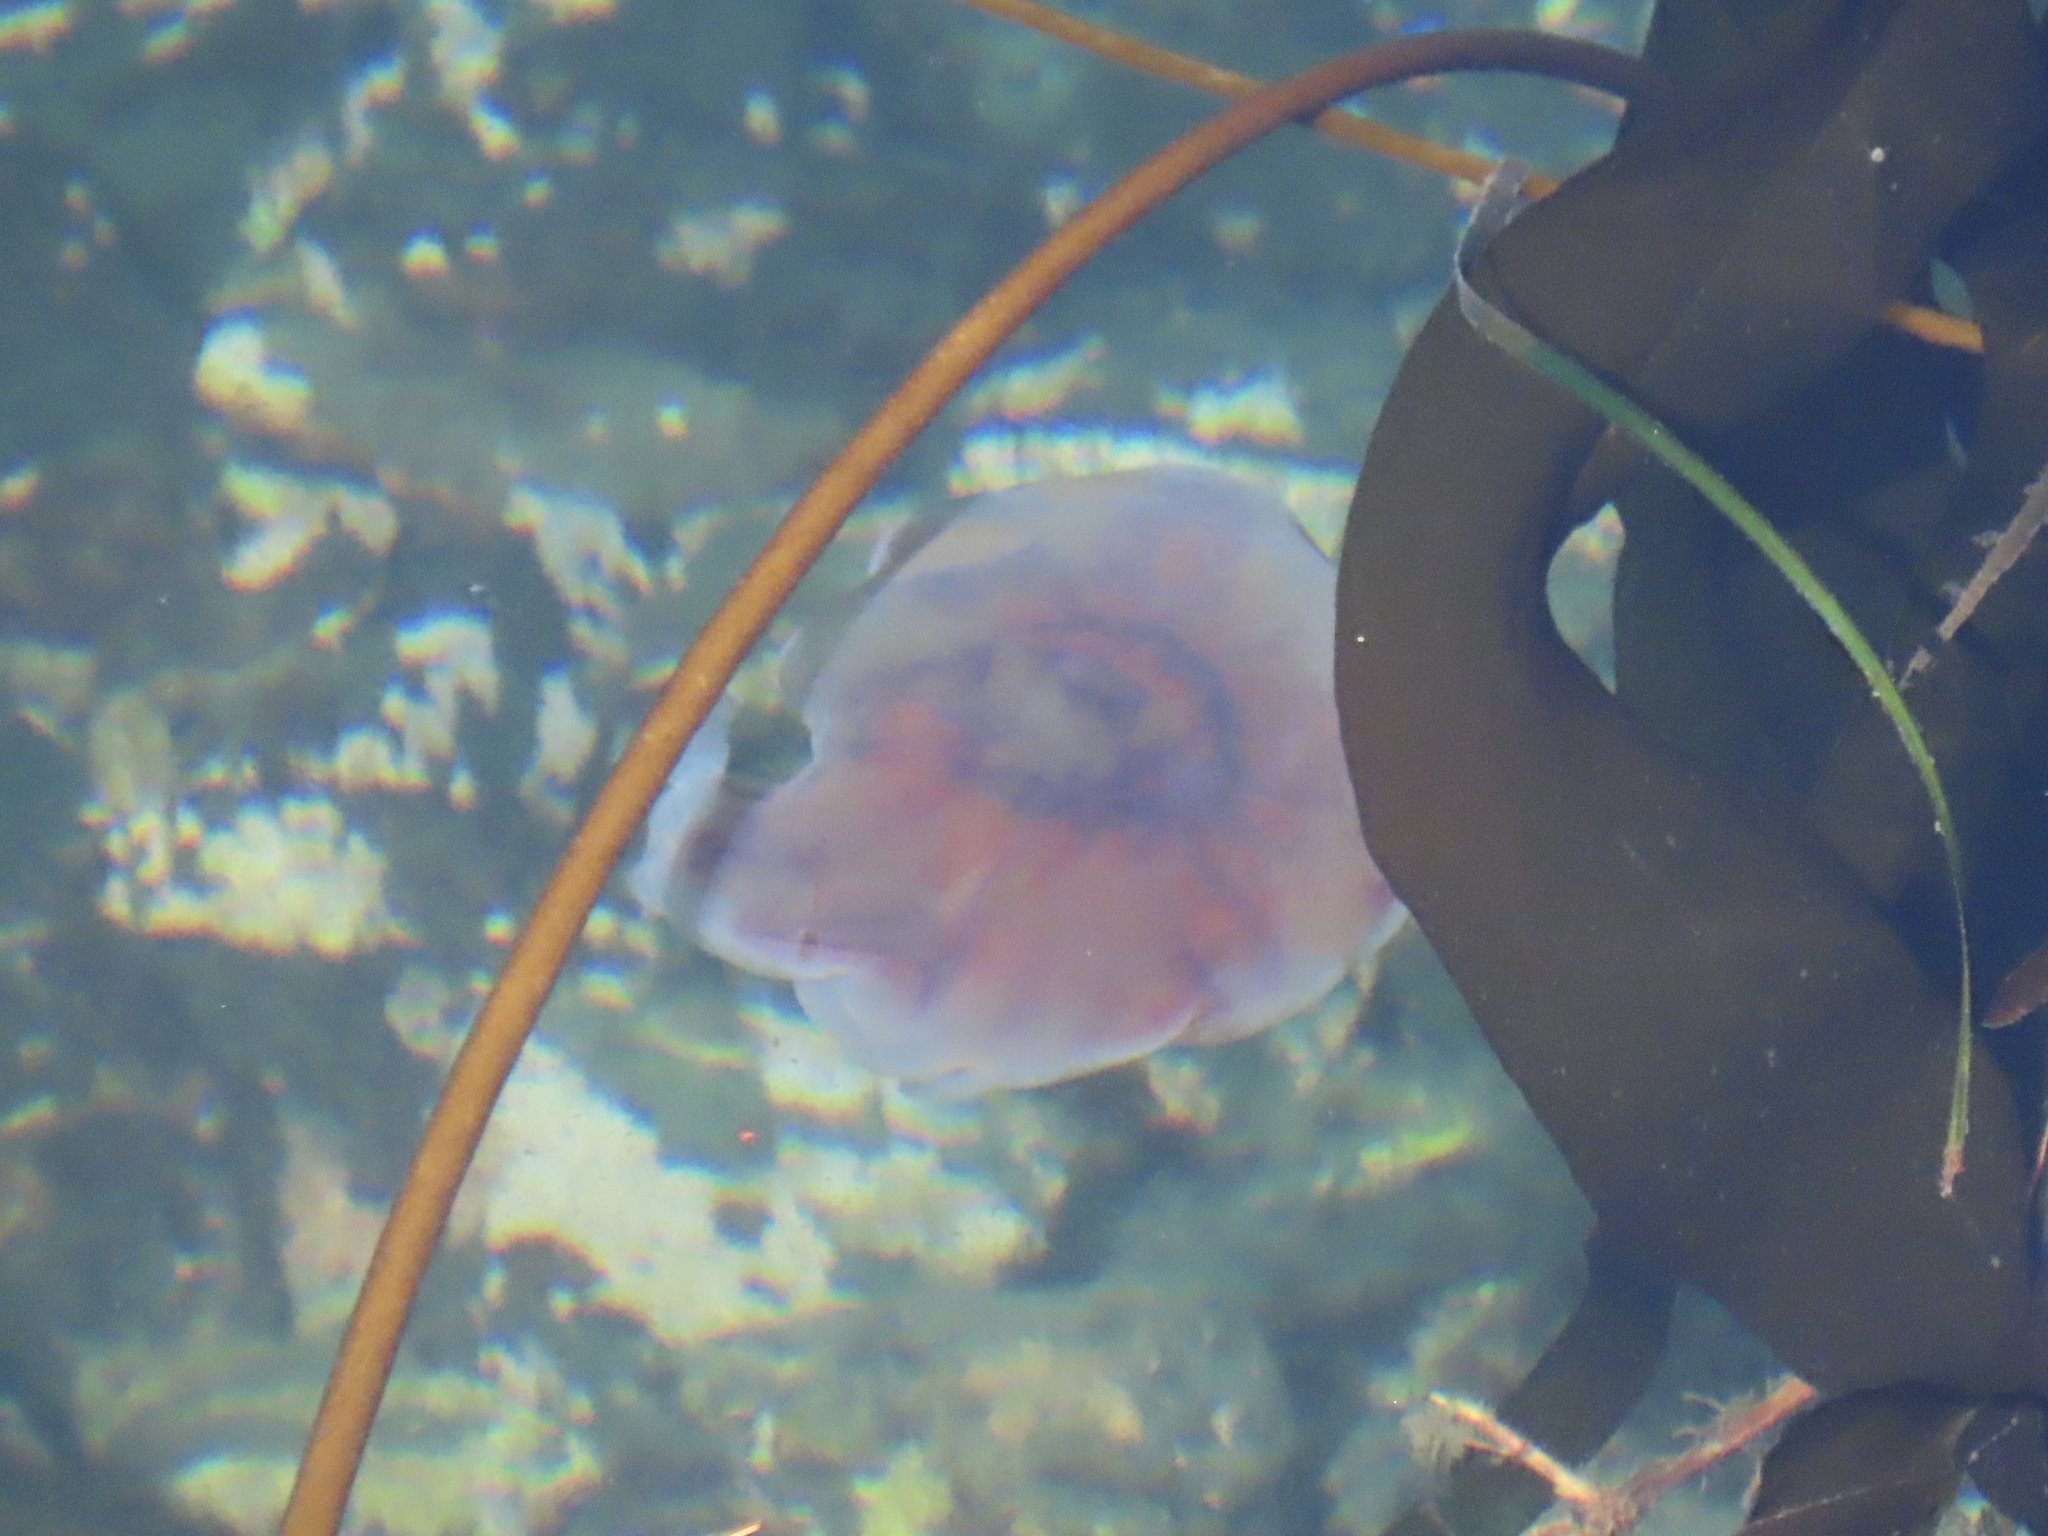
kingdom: Animalia
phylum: Cnidaria
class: Scyphozoa
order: Semaeostomeae
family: Cyaneidae
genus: Cyanea
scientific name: Cyanea ferruginea
